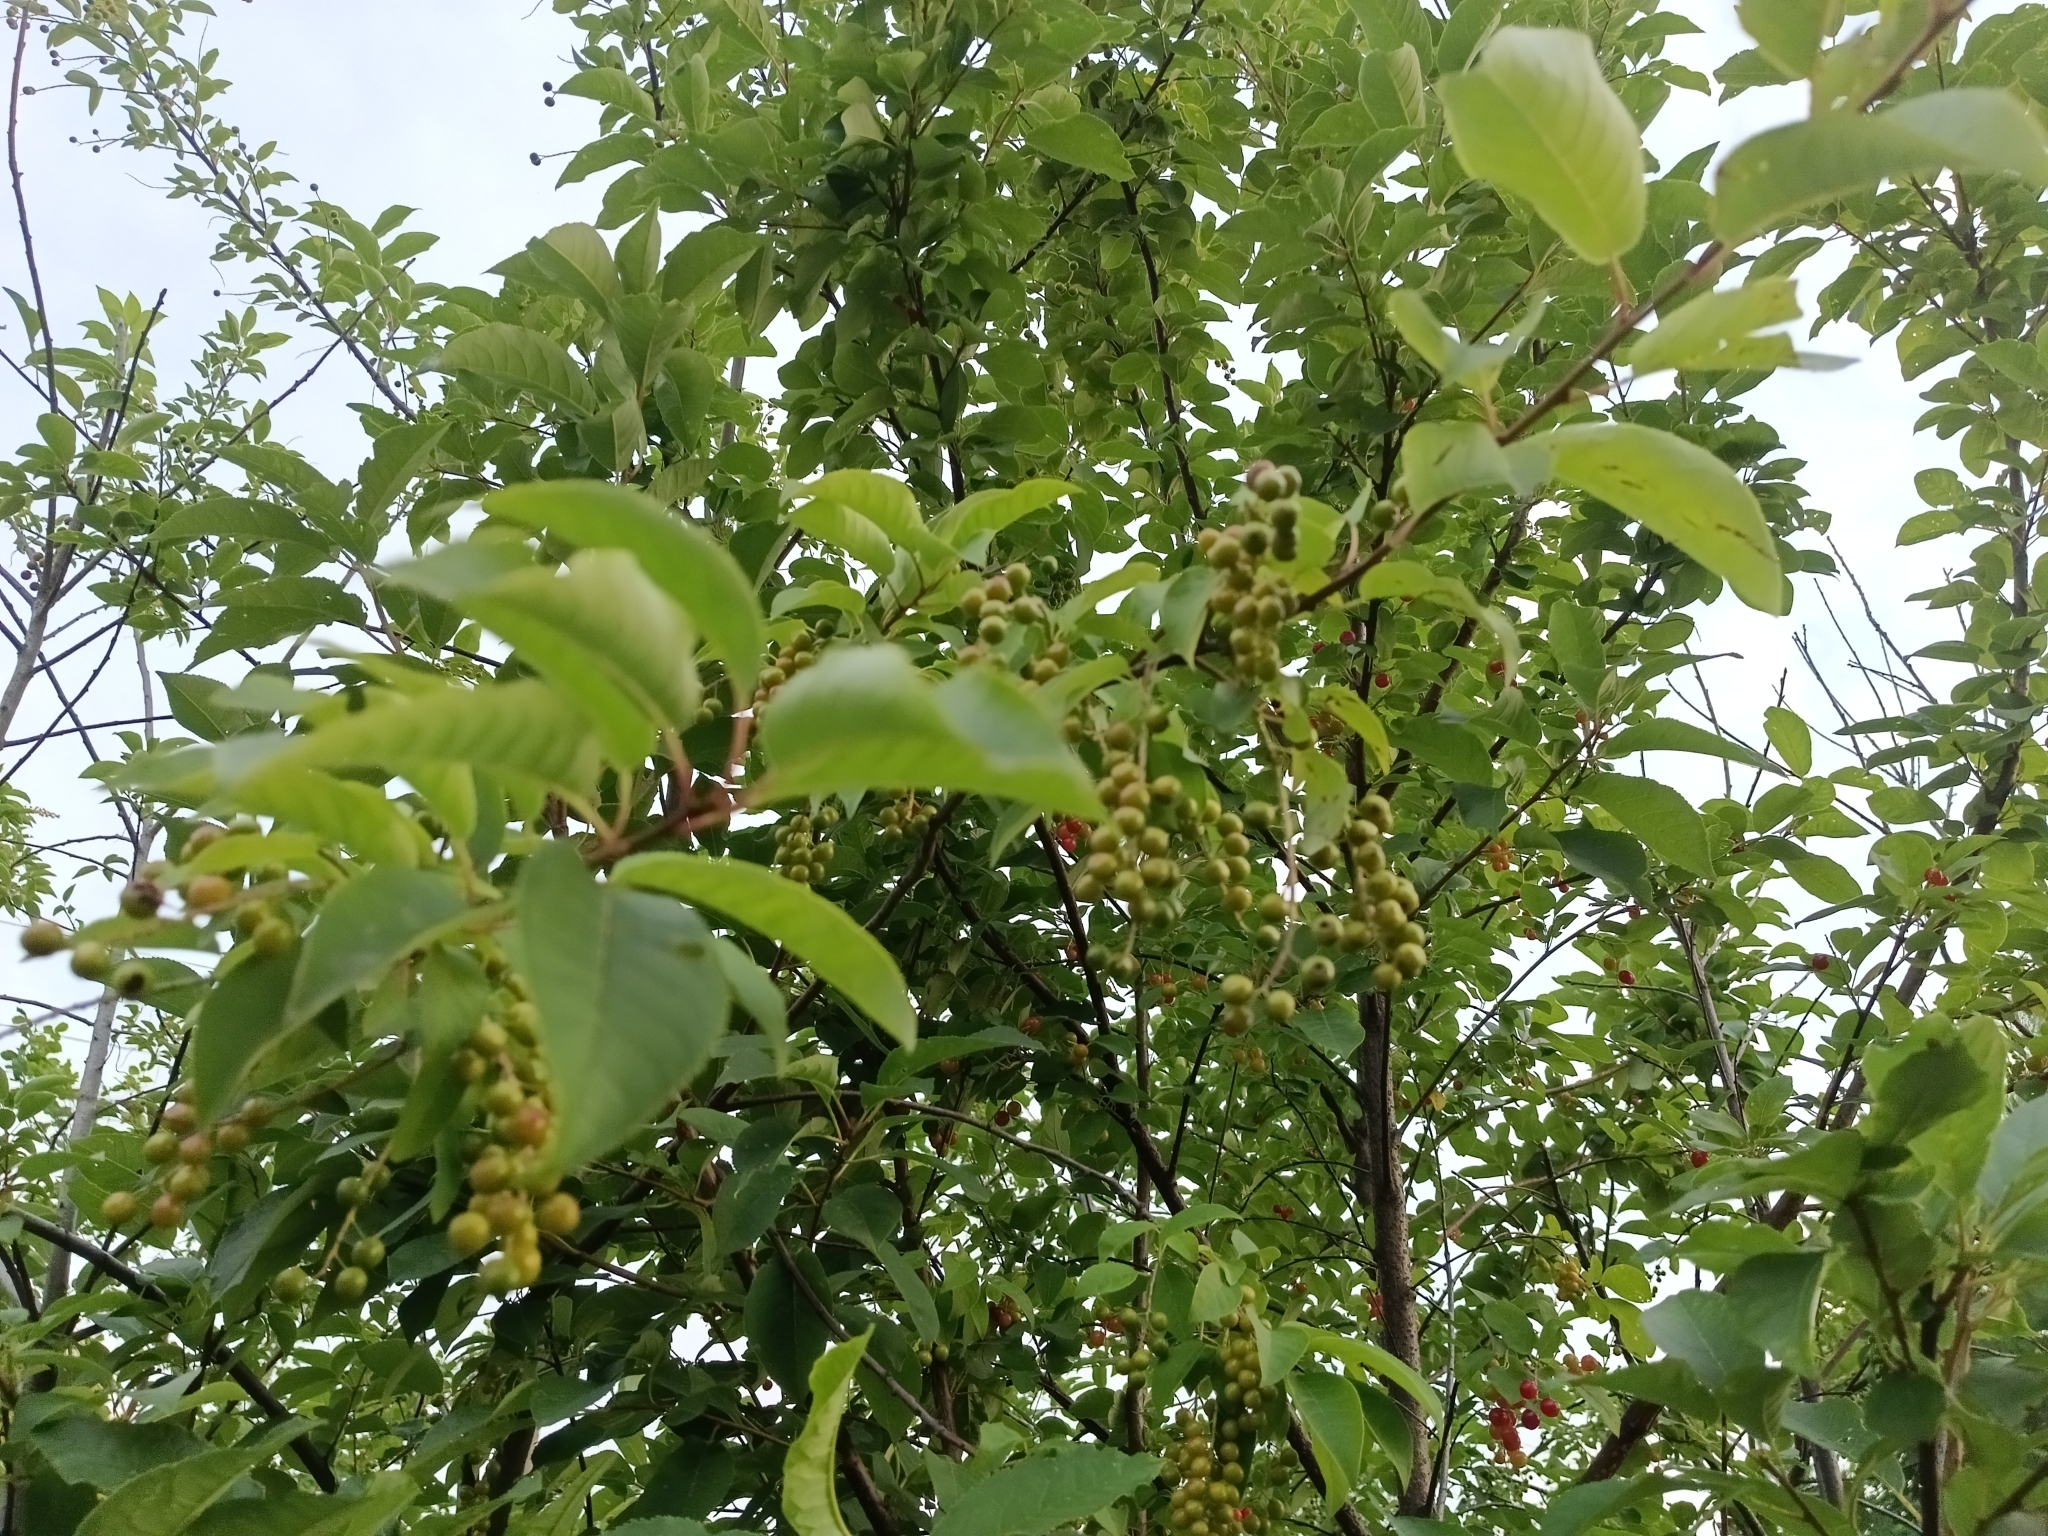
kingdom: Plantae
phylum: Tracheophyta
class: Magnoliopsida
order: Rosales
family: Rosaceae
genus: Prunus
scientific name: Prunus virginiana
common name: Chokecherry
